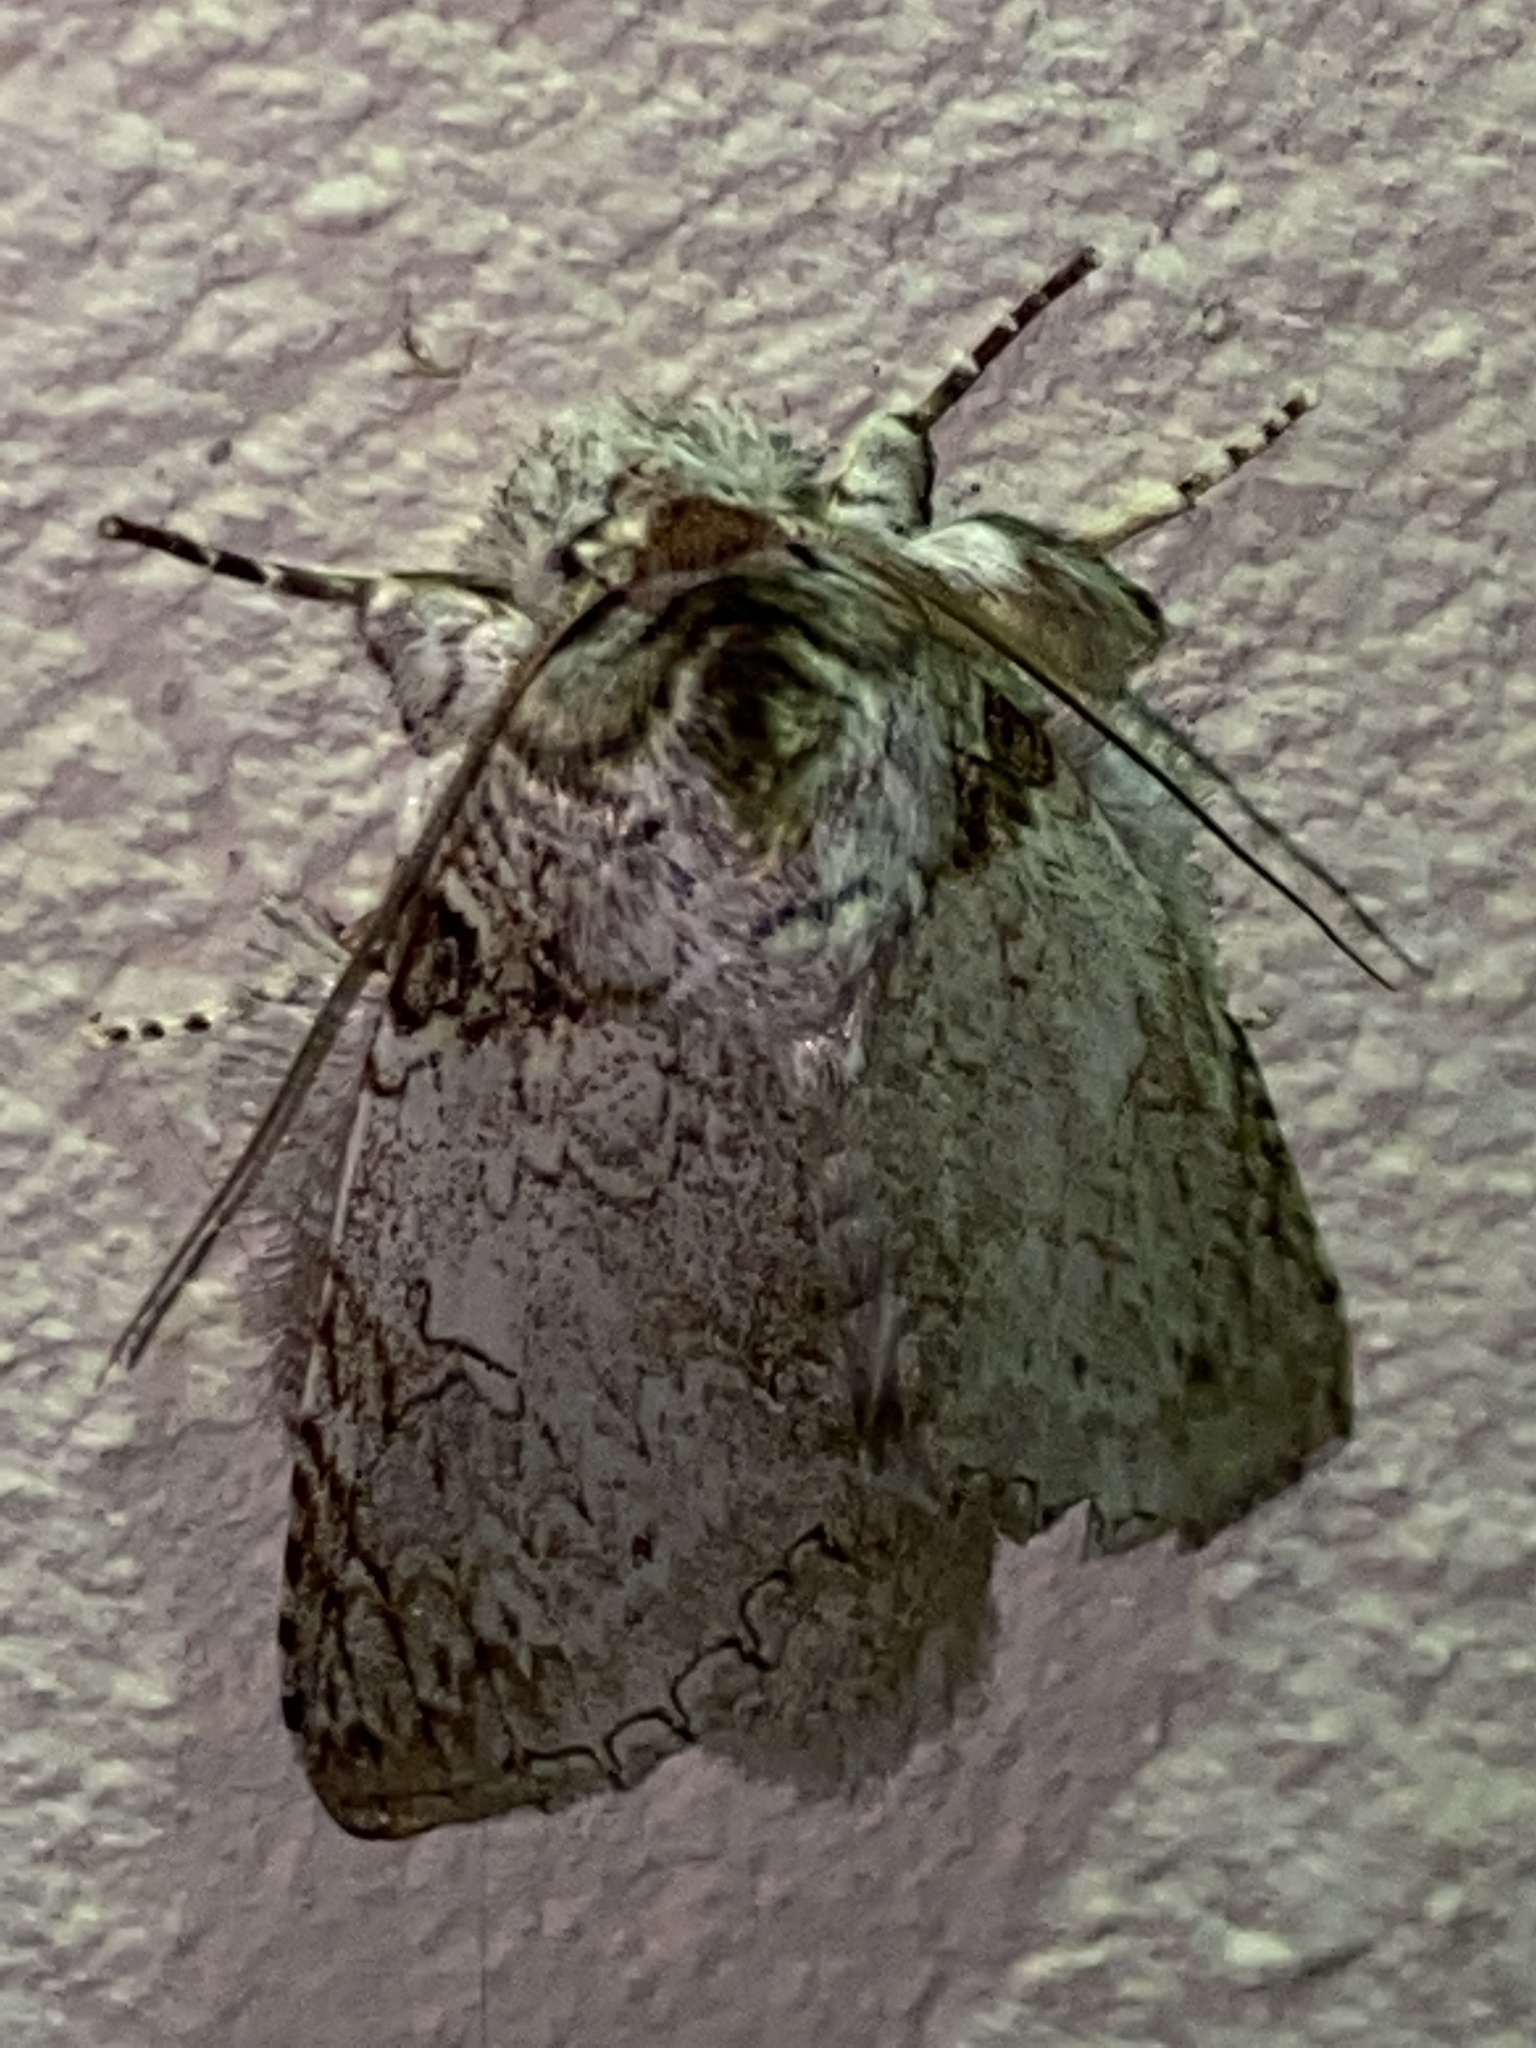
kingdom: Animalia
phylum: Arthropoda
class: Insecta
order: Lepidoptera
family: Notodontidae
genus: Rifargia
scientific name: Rifargia distinguenda
